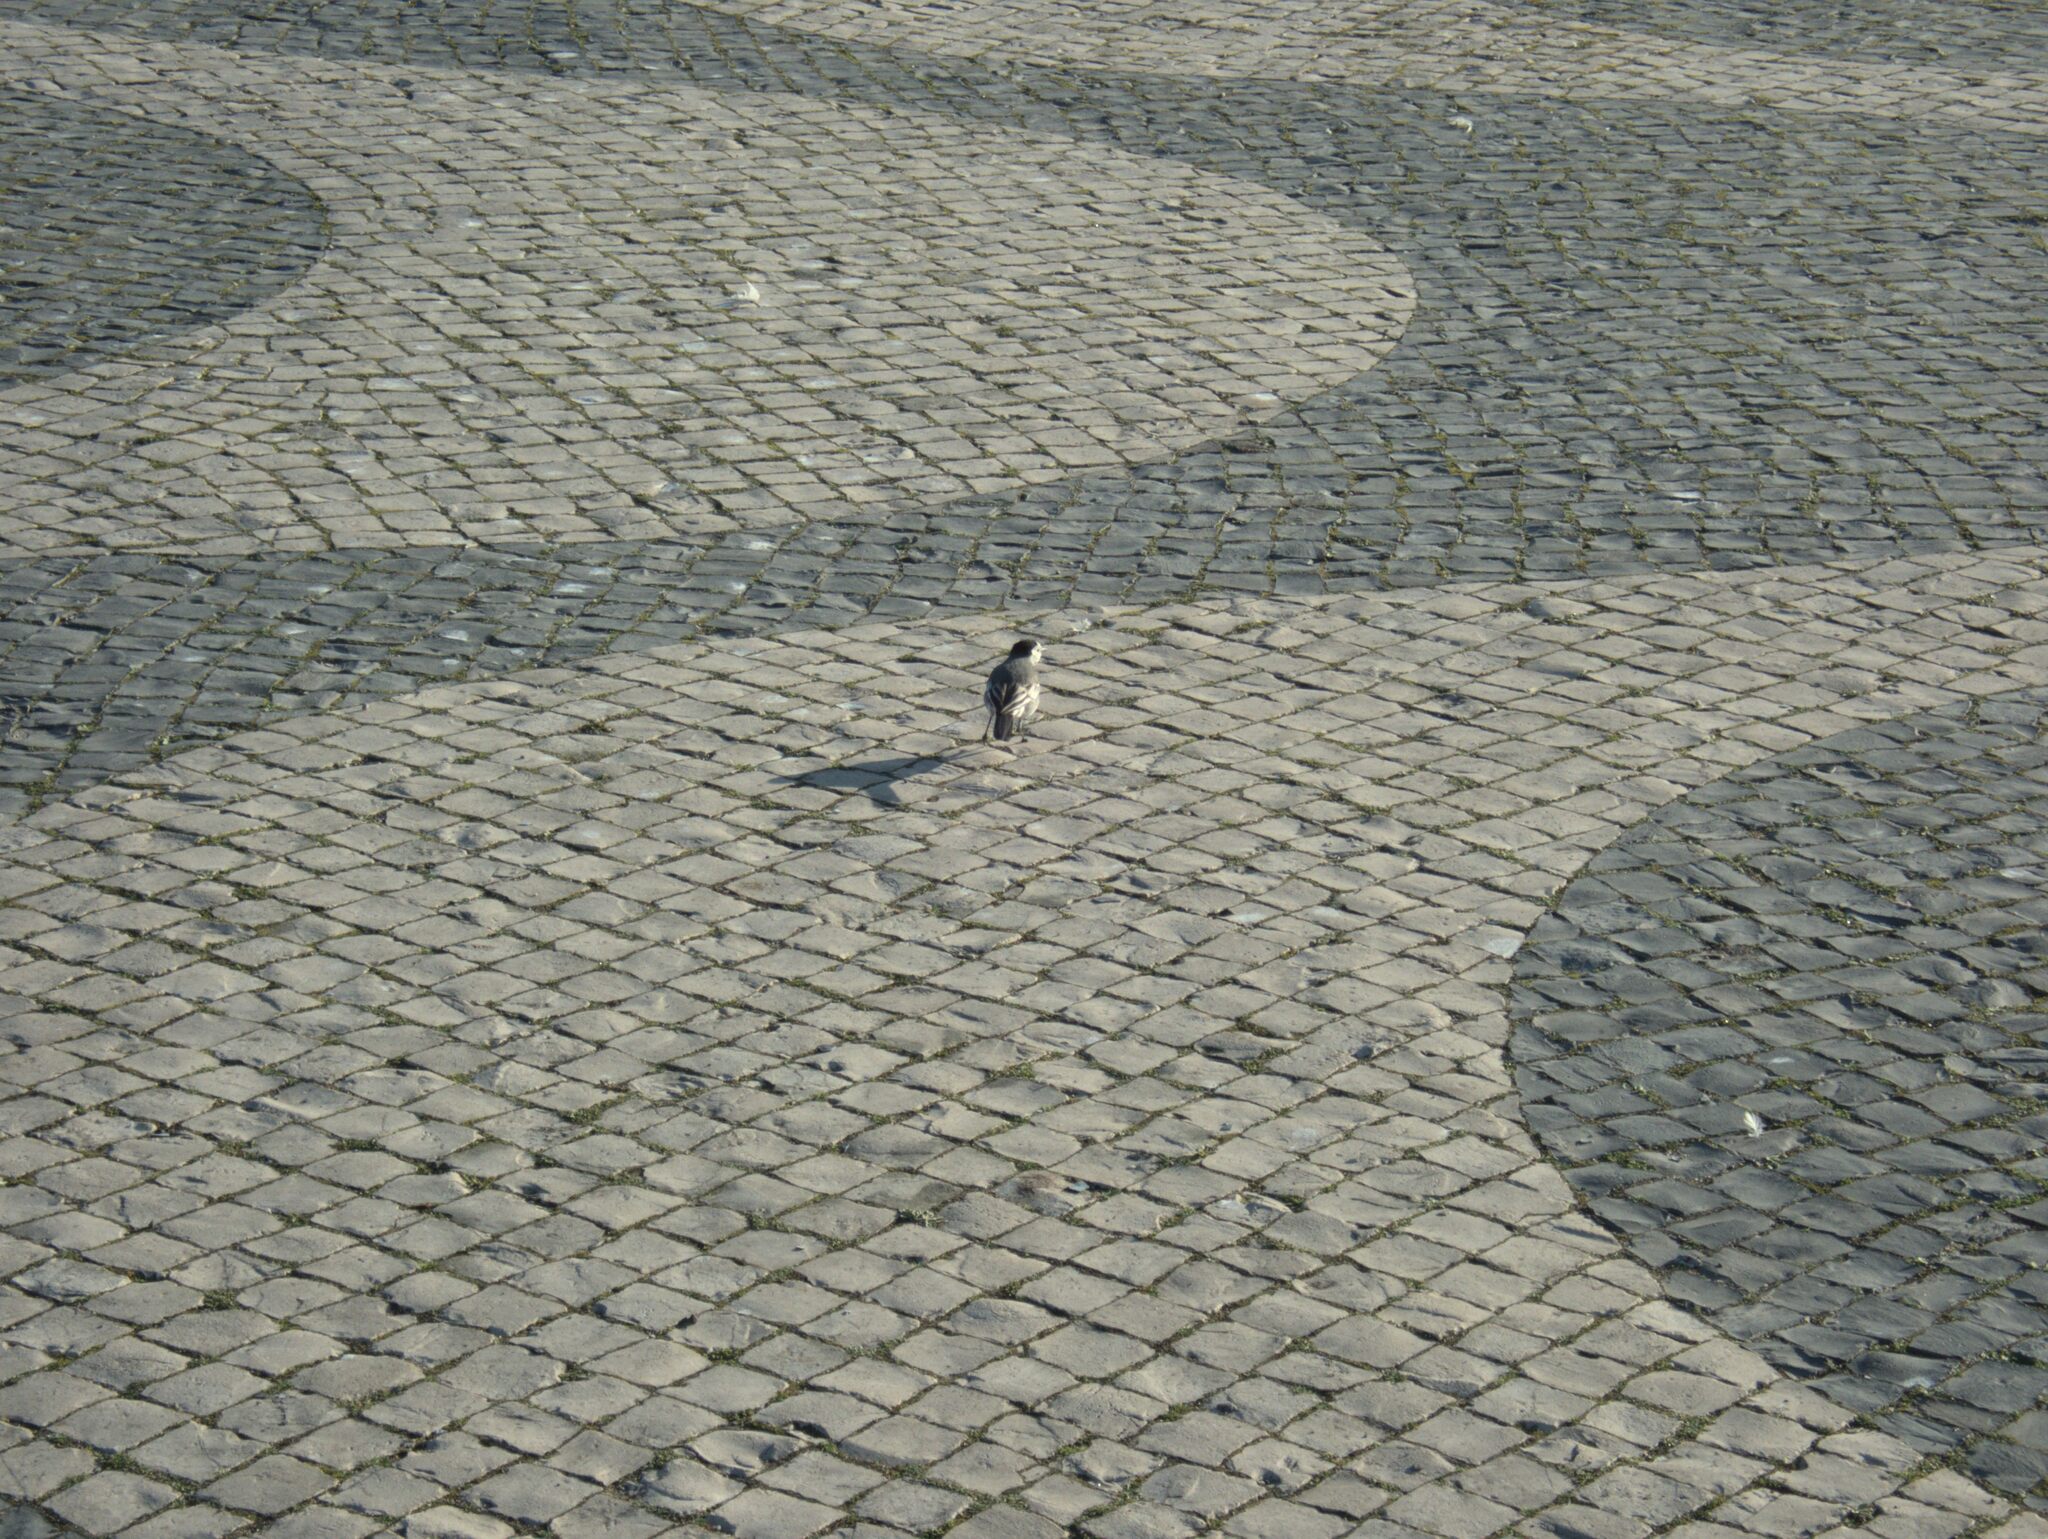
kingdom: Animalia
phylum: Chordata
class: Aves
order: Passeriformes
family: Motacillidae
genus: Motacilla
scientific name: Motacilla alba
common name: White wagtail
